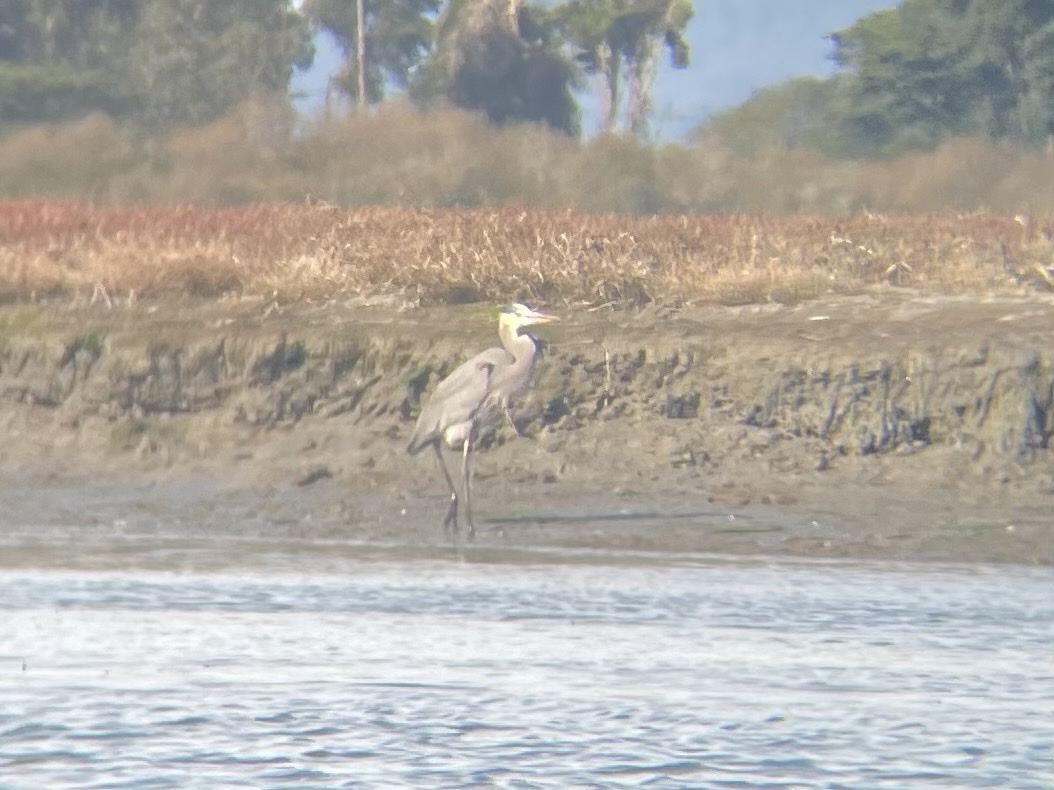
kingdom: Animalia
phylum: Chordata
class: Aves
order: Pelecaniformes
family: Ardeidae
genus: Ardea
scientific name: Ardea herodias
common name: Great blue heron
